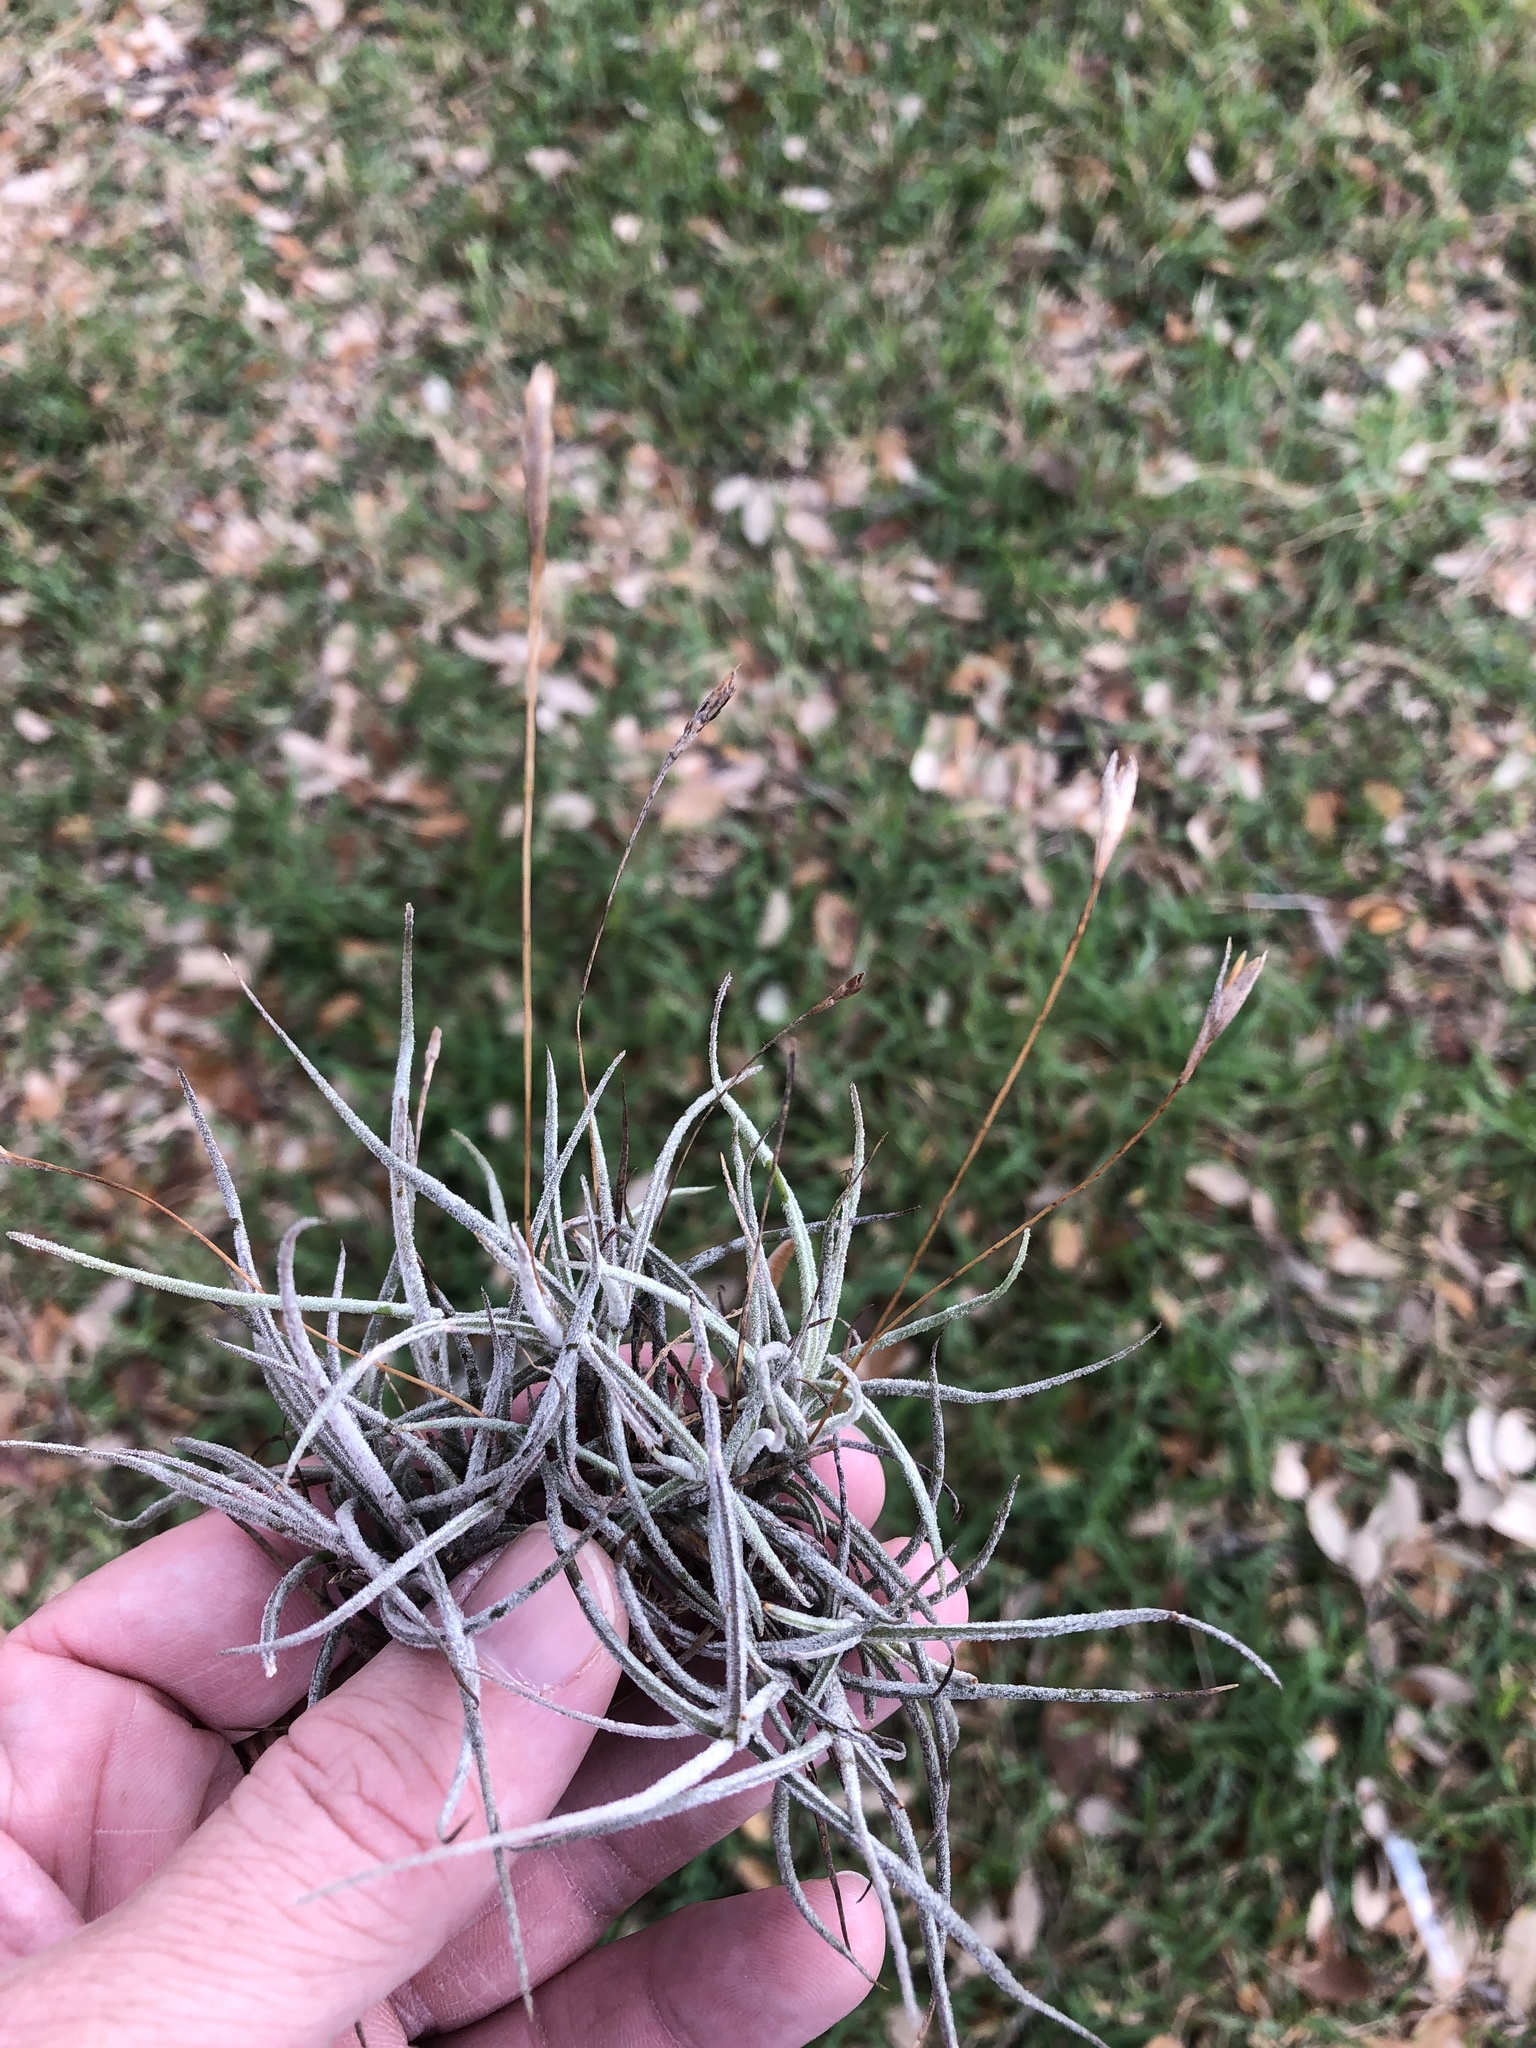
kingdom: Plantae
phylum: Tracheophyta
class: Liliopsida
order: Poales
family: Bromeliaceae
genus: Tillandsia
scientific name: Tillandsia recurvata
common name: Small ballmoss
